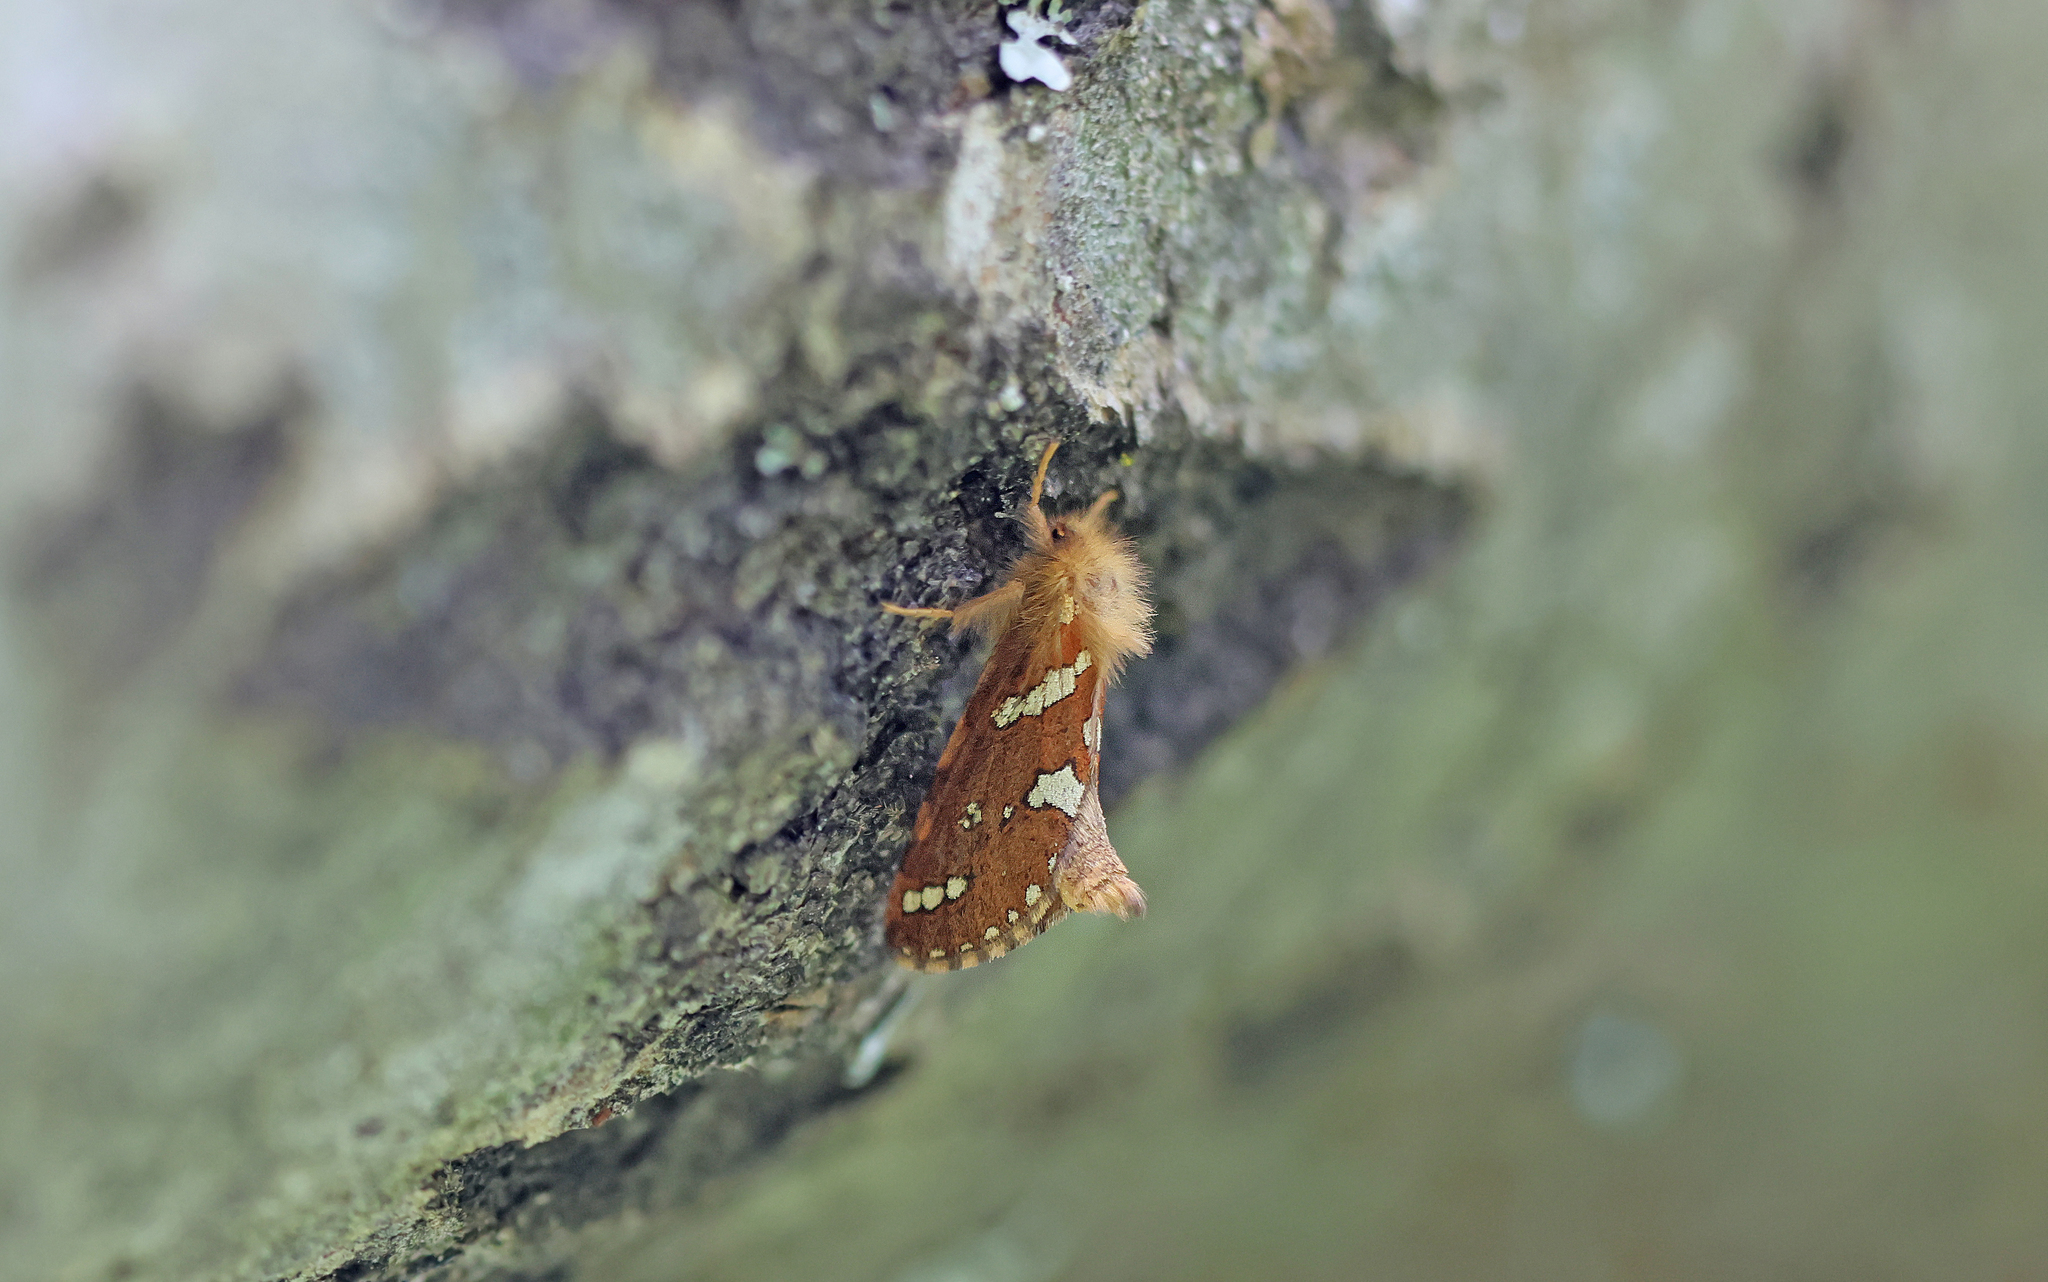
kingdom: Animalia
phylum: Arthropoda
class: Insecta
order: Lepidoptera
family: Hepialidae
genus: Phymatopus
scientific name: Phymatopus hecta
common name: Gold swift
